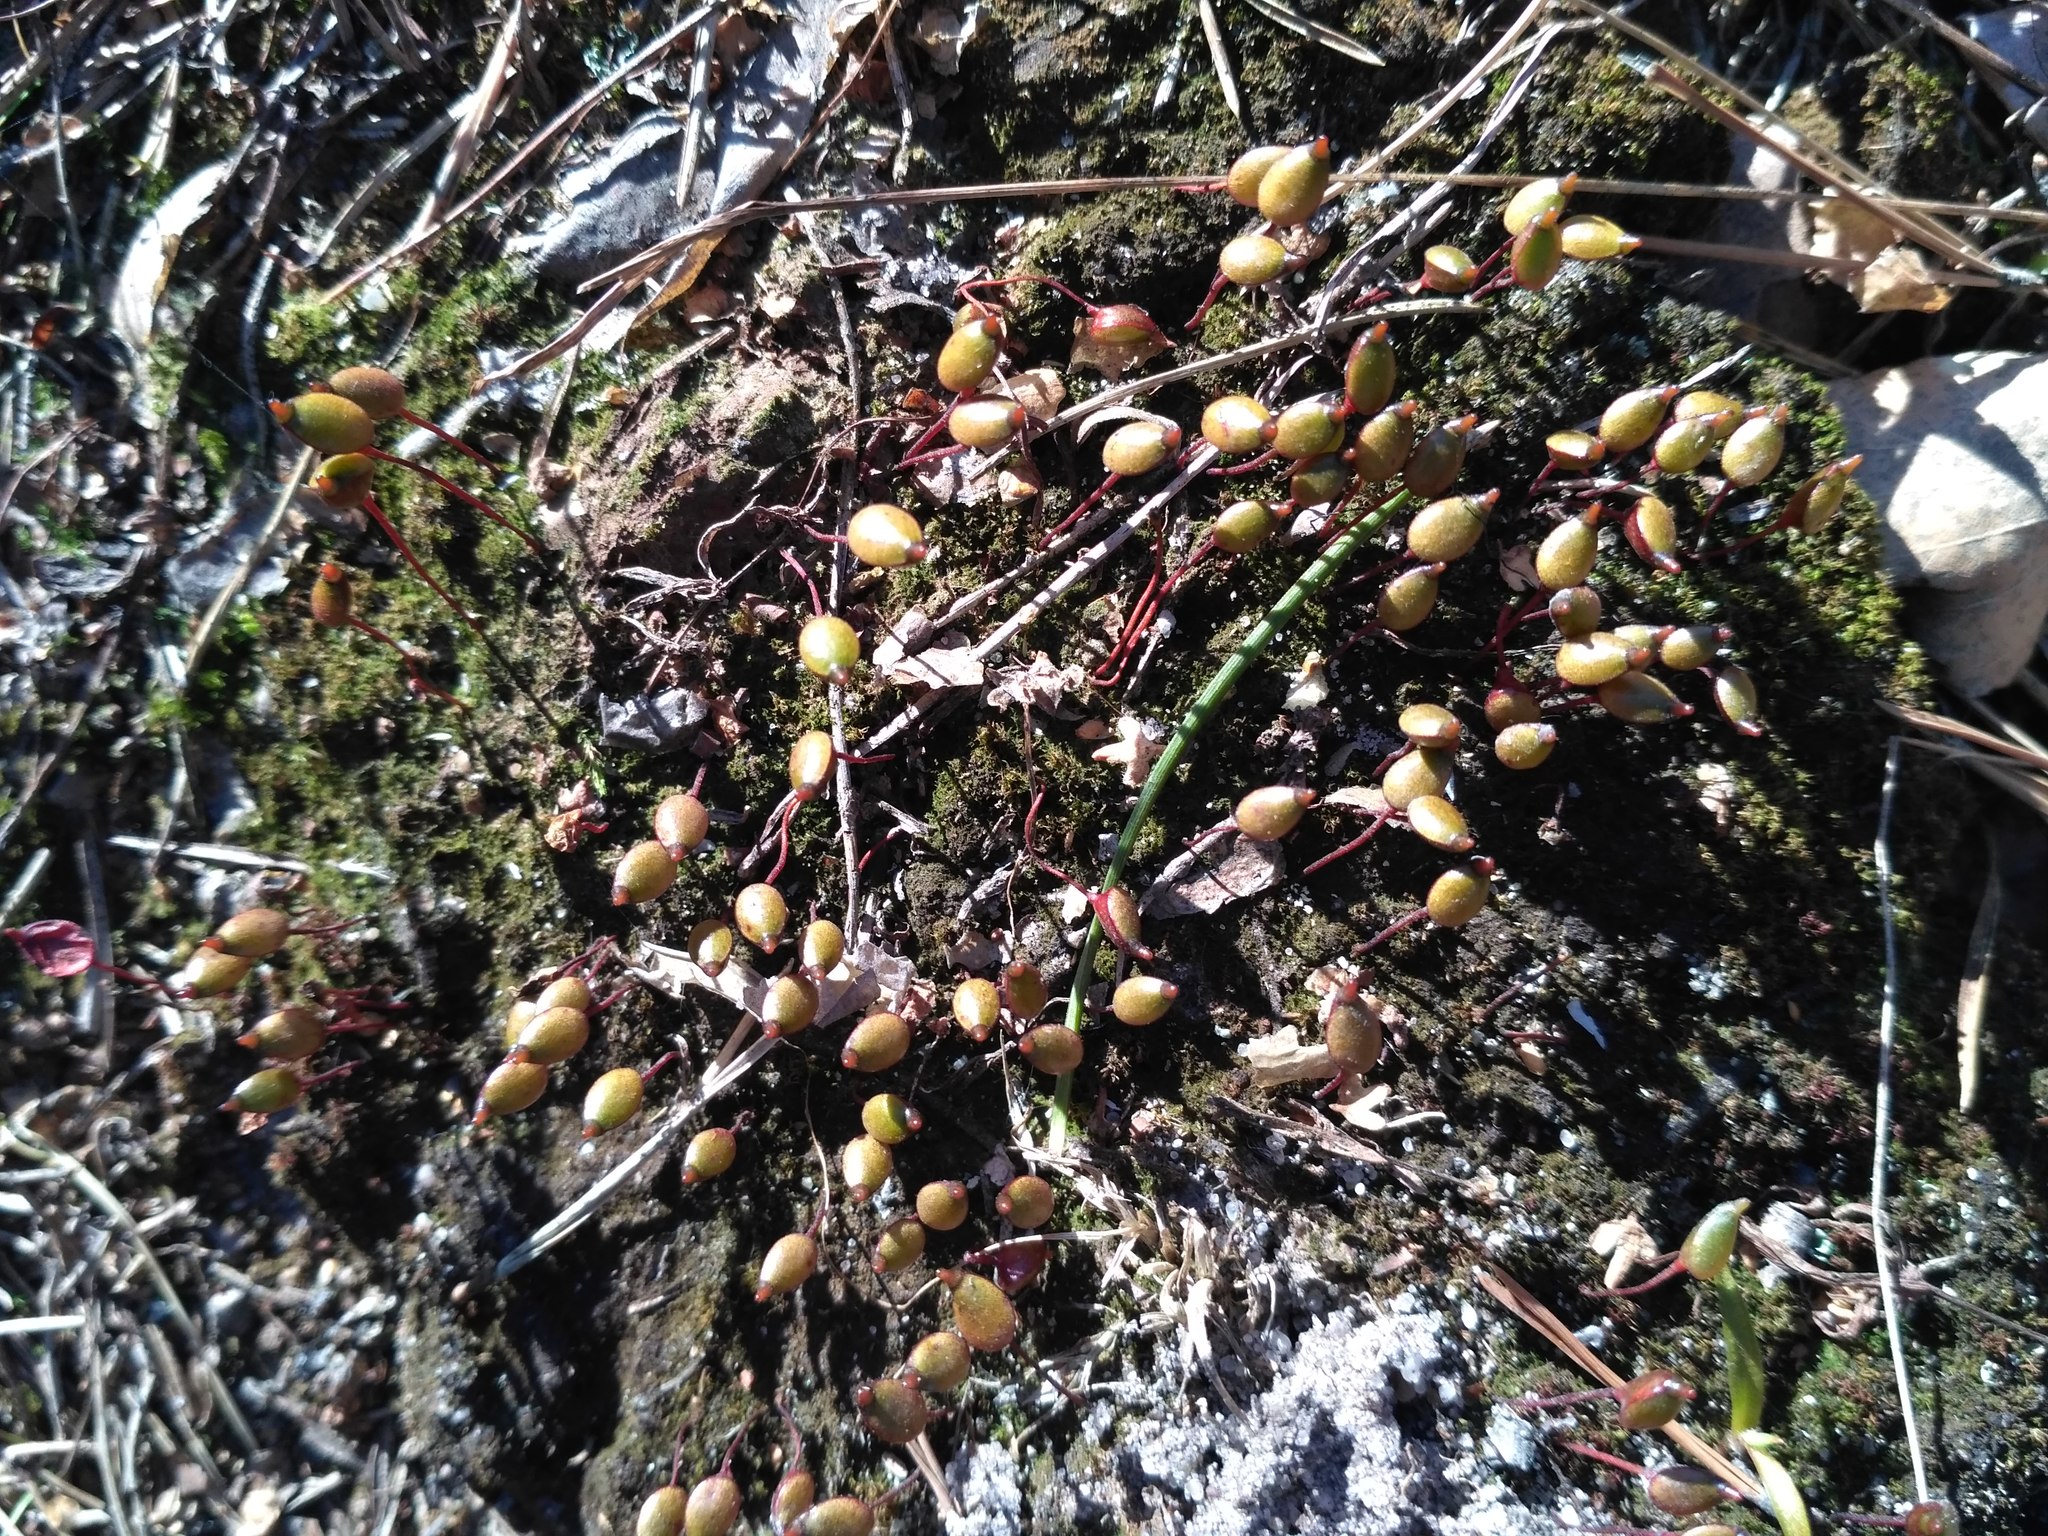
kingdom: Plantae
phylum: Bryophyta
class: Bryopsida
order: Buxbaumiales
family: Buxbaumiaceae
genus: Buxbaumia
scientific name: Buxbaumia aphylla
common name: Brown shield-moss
